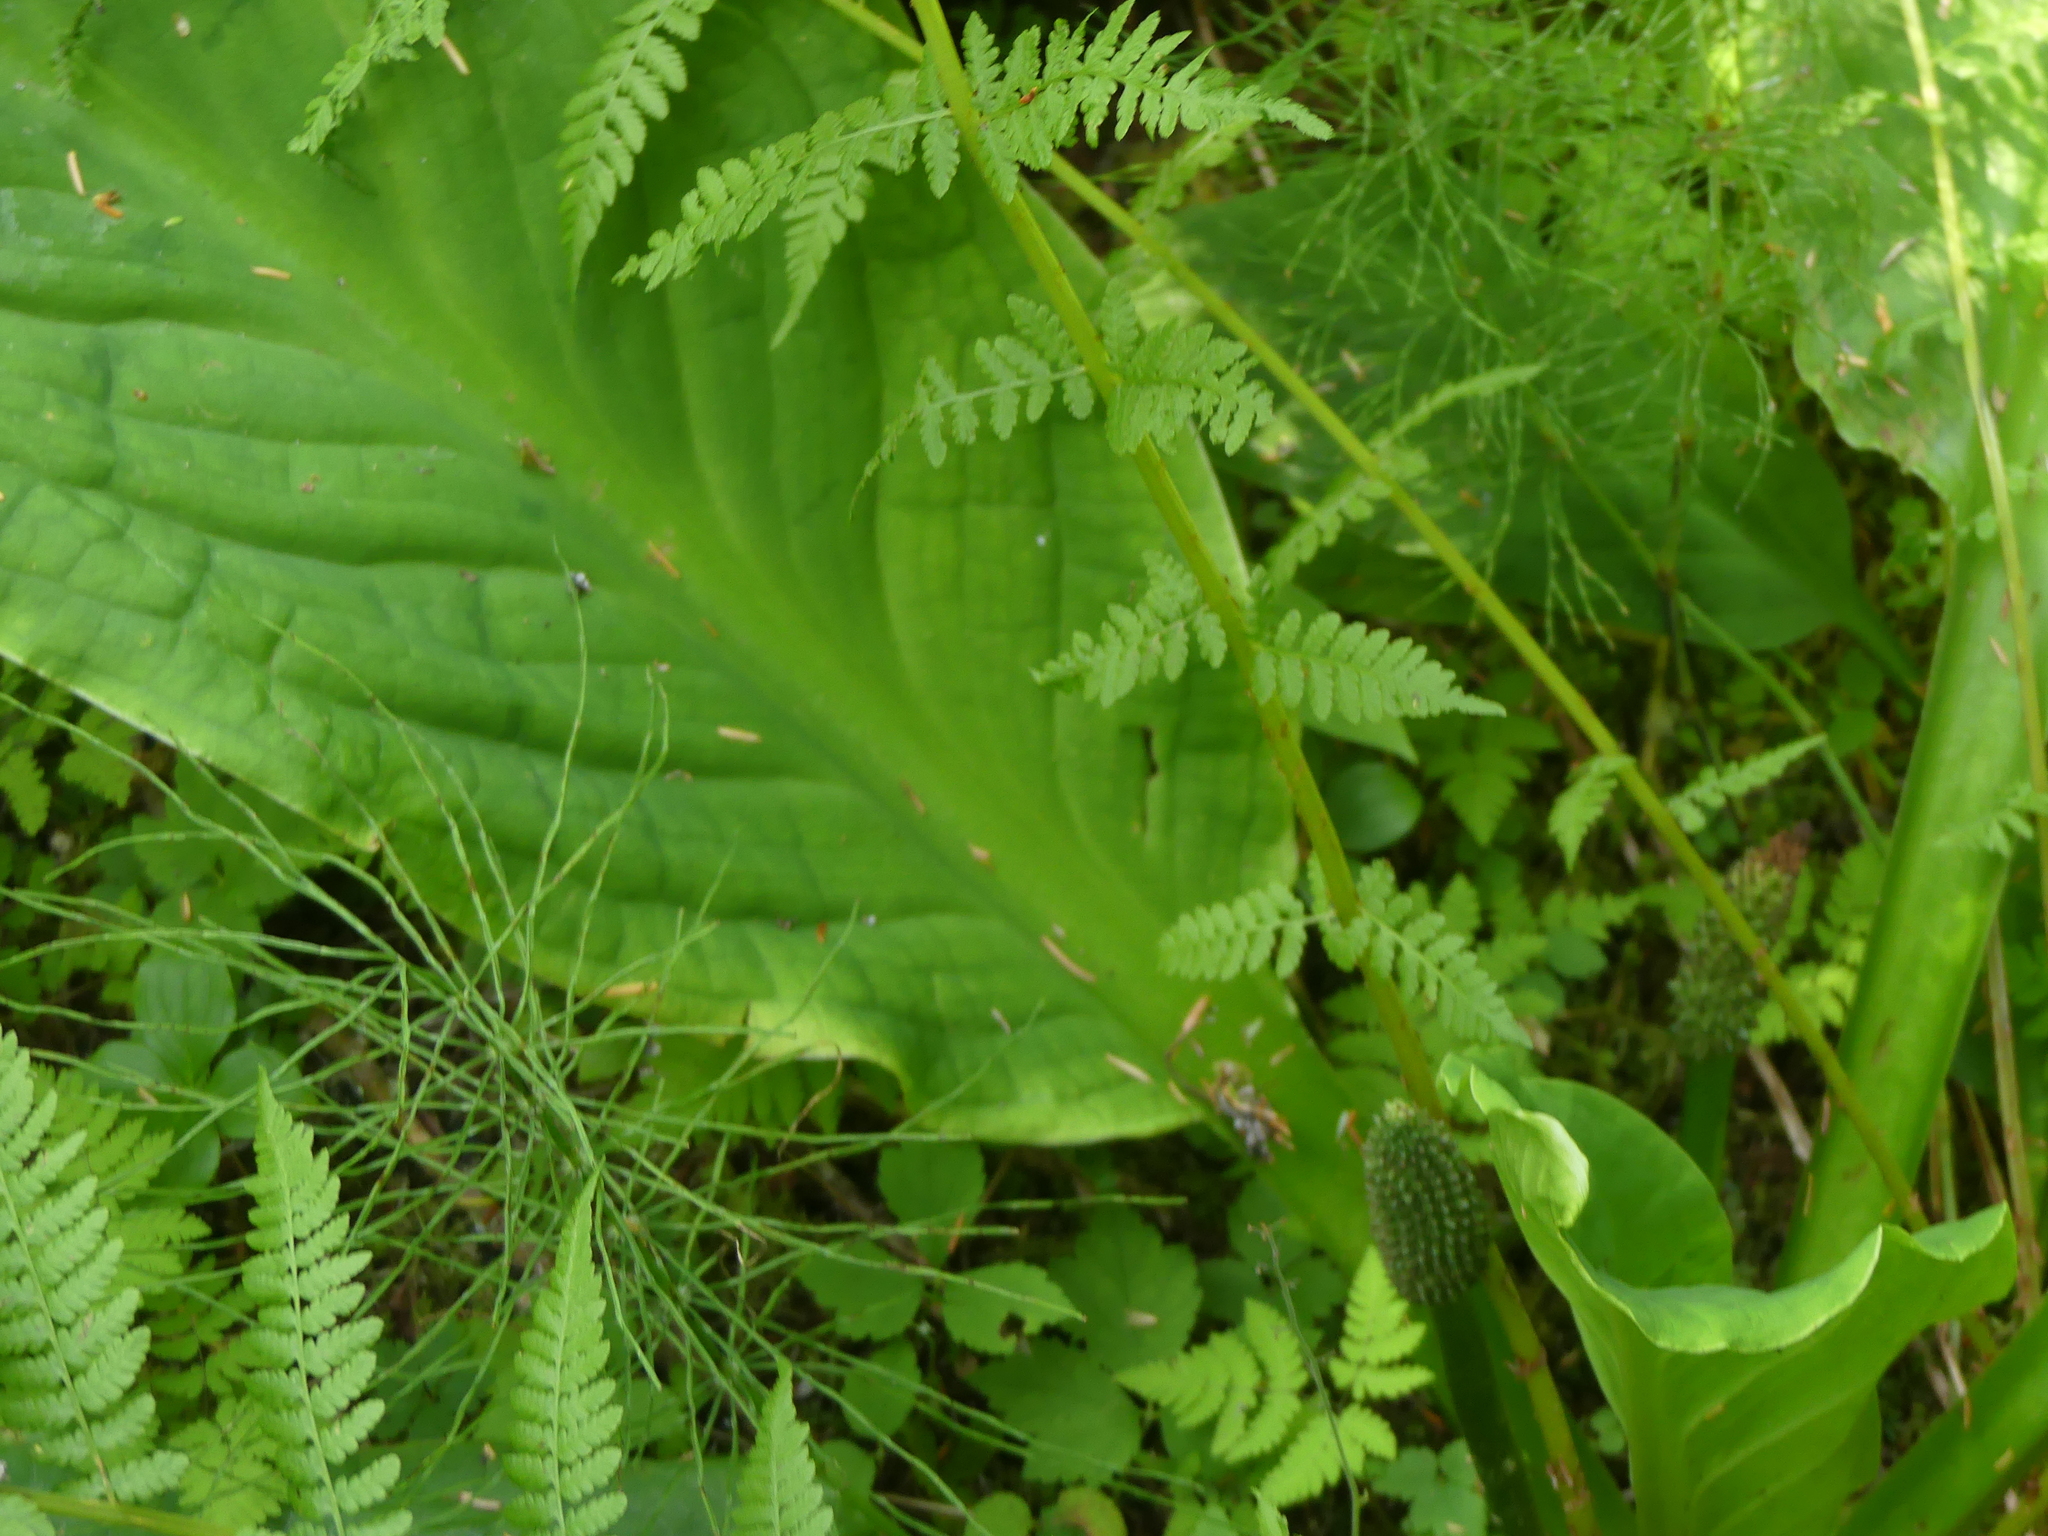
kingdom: Plantae
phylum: Tracheophyta
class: Polypodiopsida
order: Polypodiales
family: Athyriaceae
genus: Athyrium
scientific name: Athyrium filix-femina
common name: Lady fern
